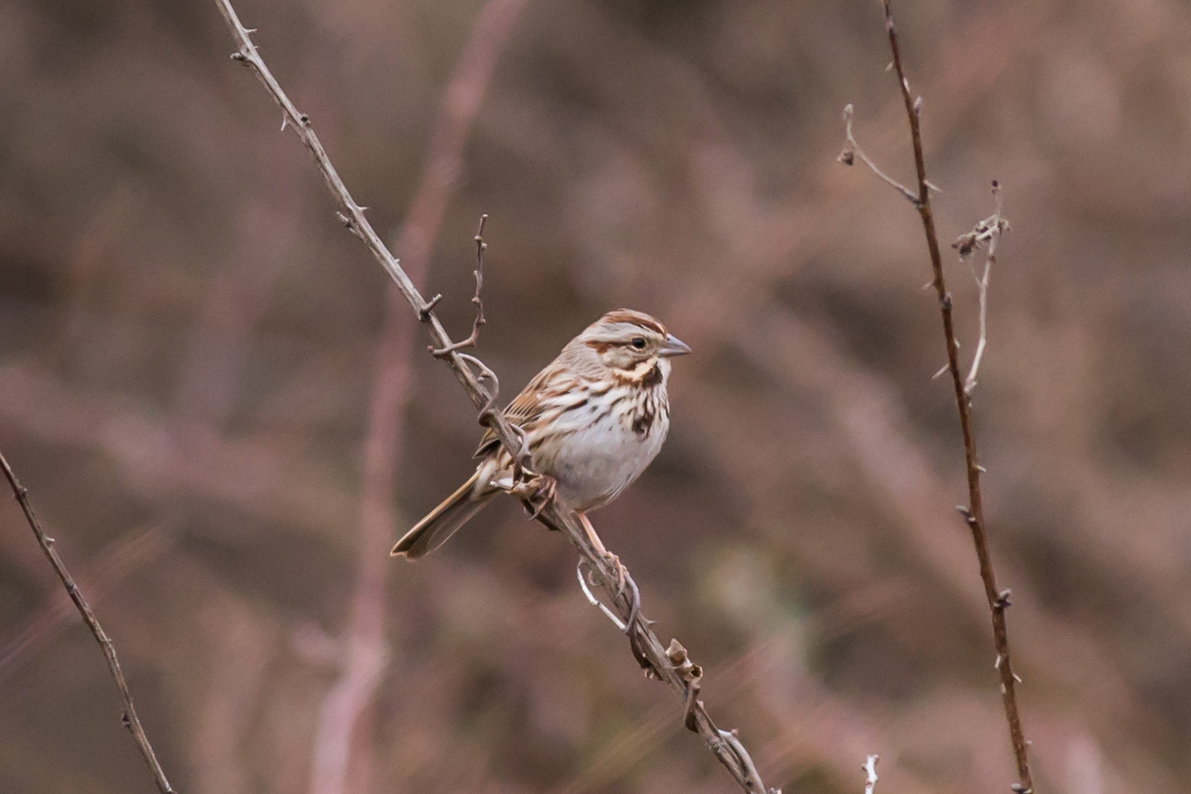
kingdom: Animalia
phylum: Chordata
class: Aves
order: Passeriformes
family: Passerellidae
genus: Melospiza
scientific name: Melospiza melodia
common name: Song sparrow
